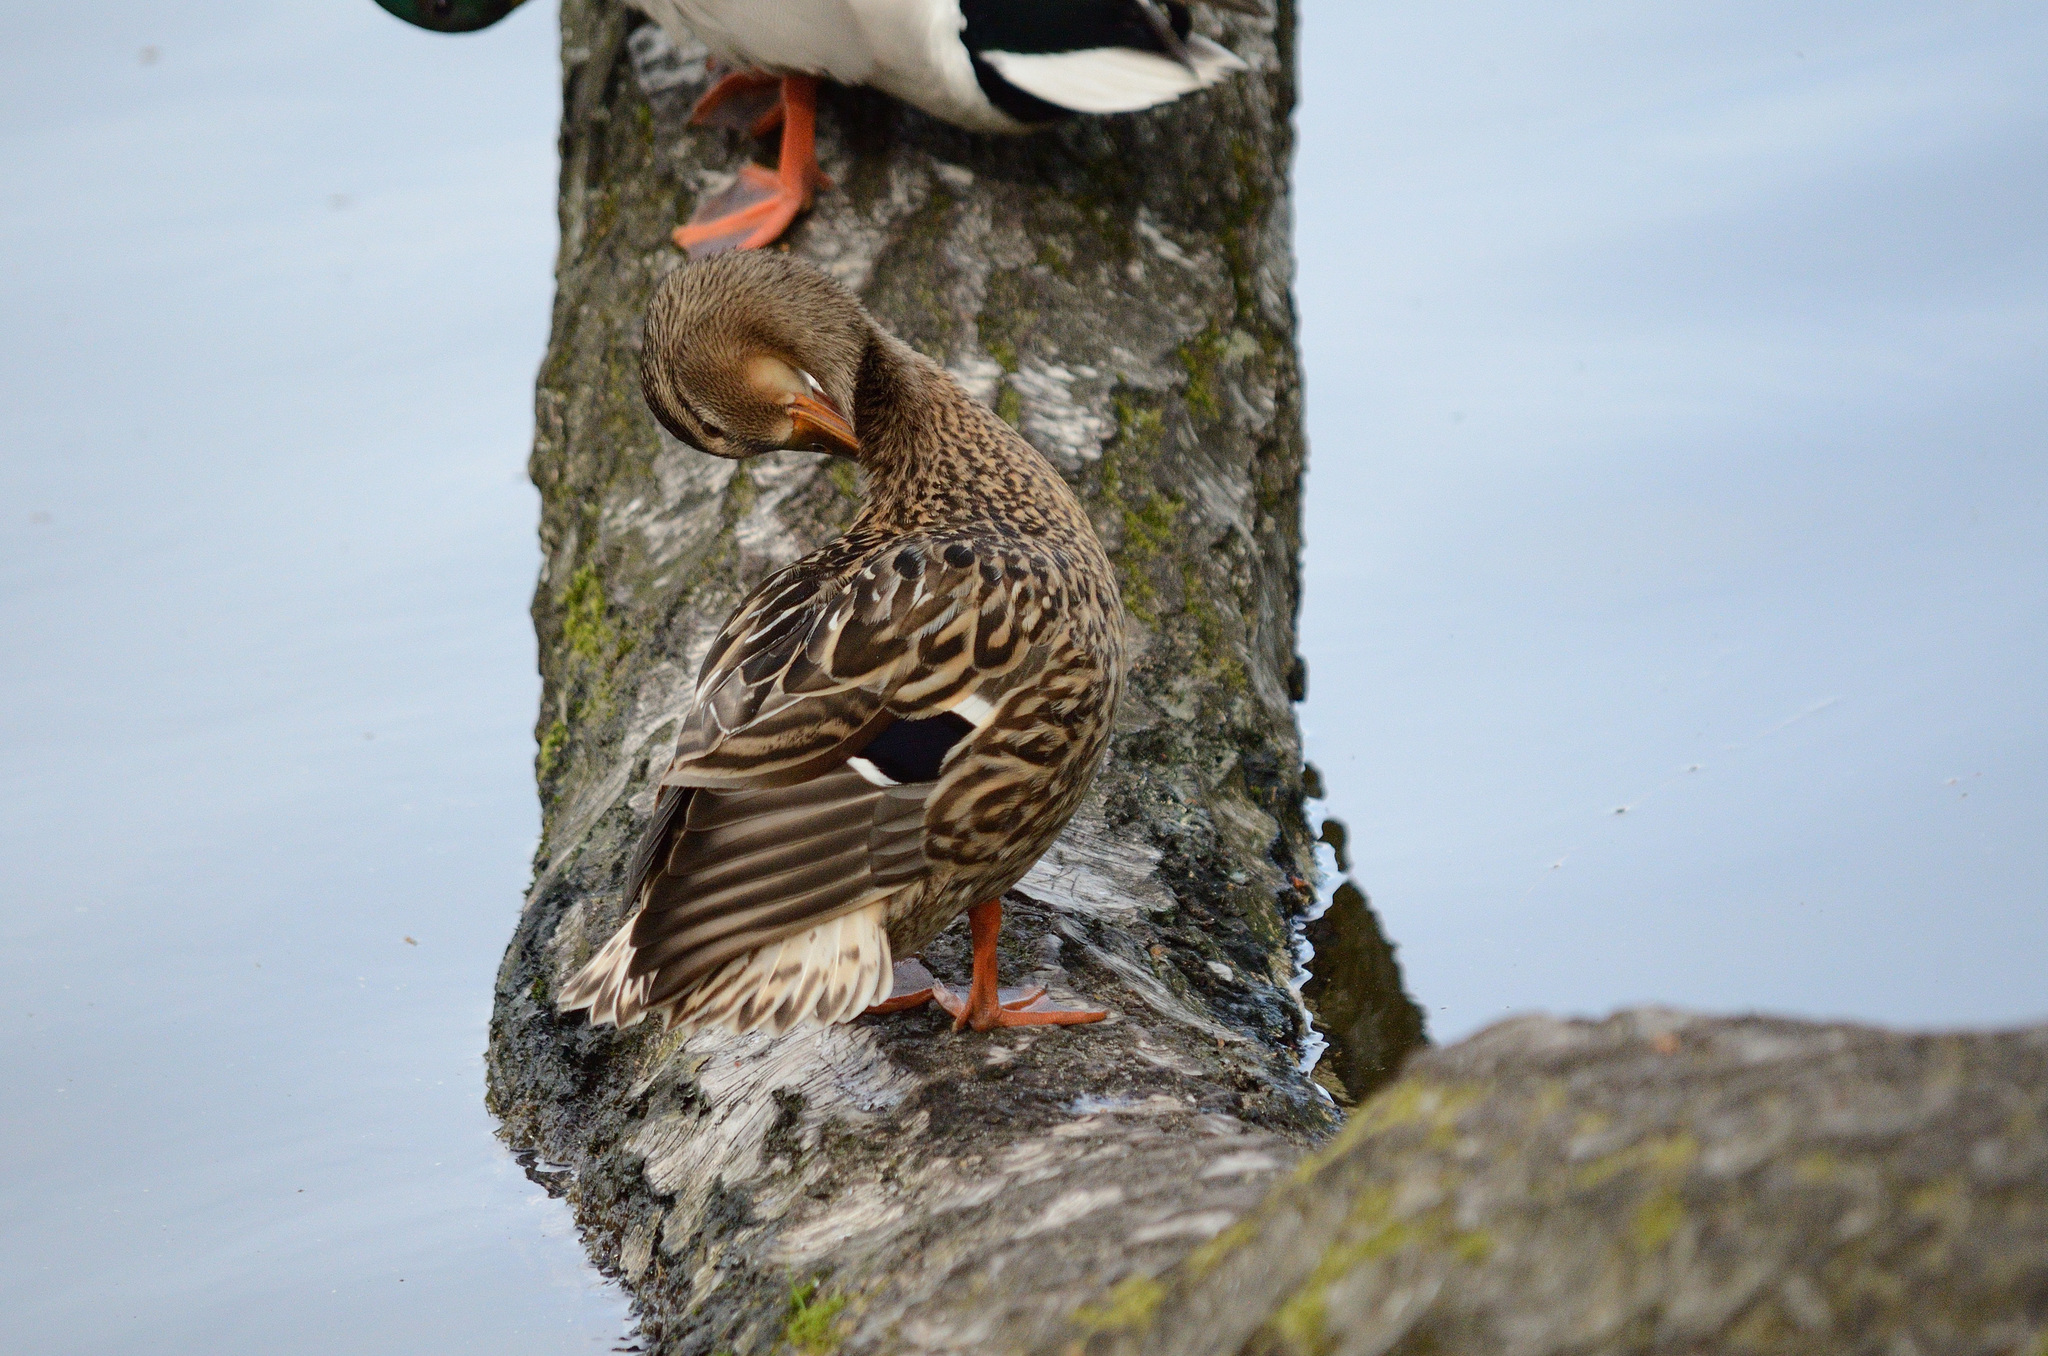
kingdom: Animalia
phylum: Chordata
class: Aves
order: Anseriformes
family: Anatidae
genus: Anas
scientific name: Anas platyrhynchos
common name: Mallard
